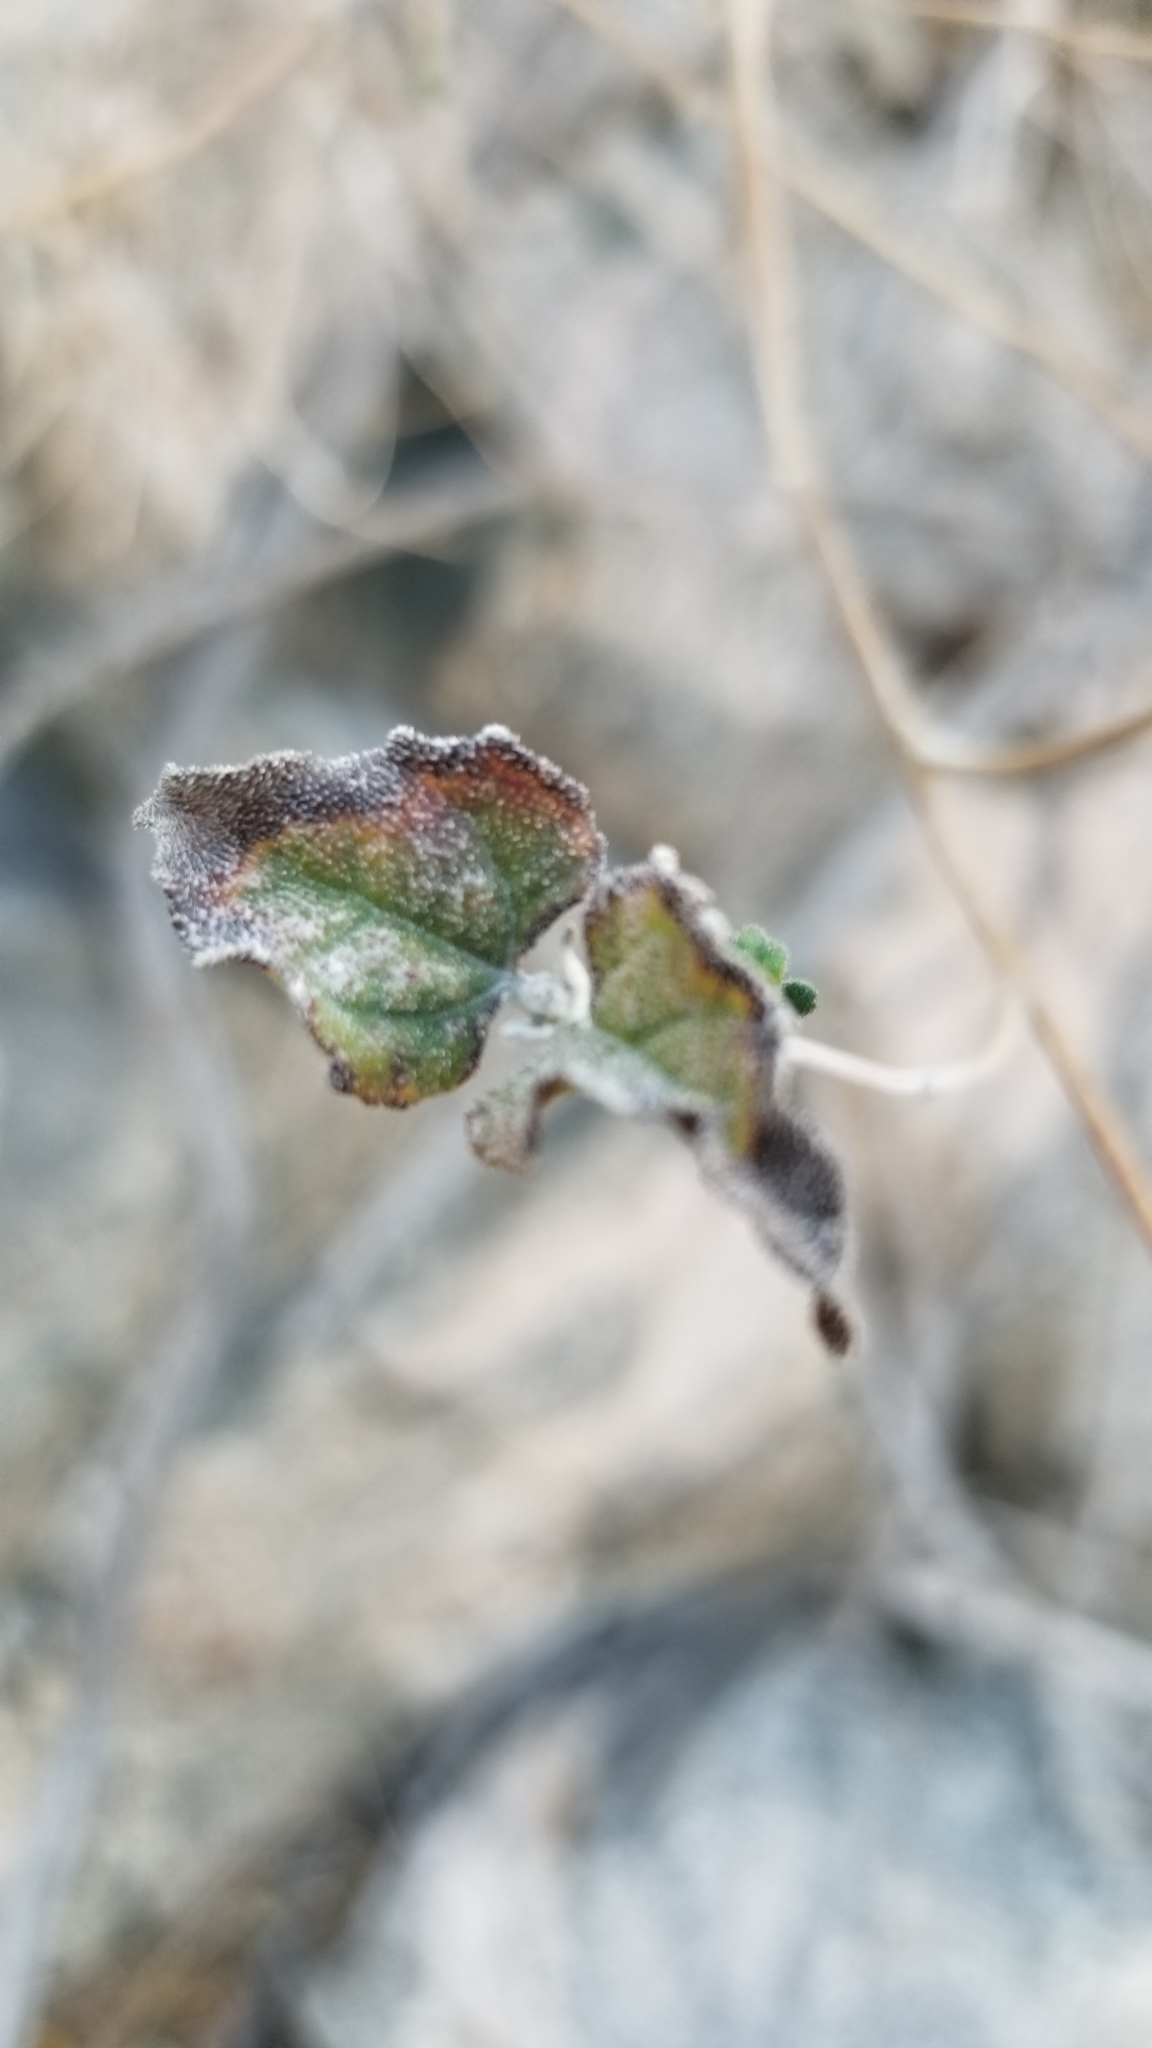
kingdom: Plantae
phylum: Tracheophyta
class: Magnoliopsida
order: Asterales
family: Asteraceae
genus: Bahiopsis
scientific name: Bahiopsis parishii
